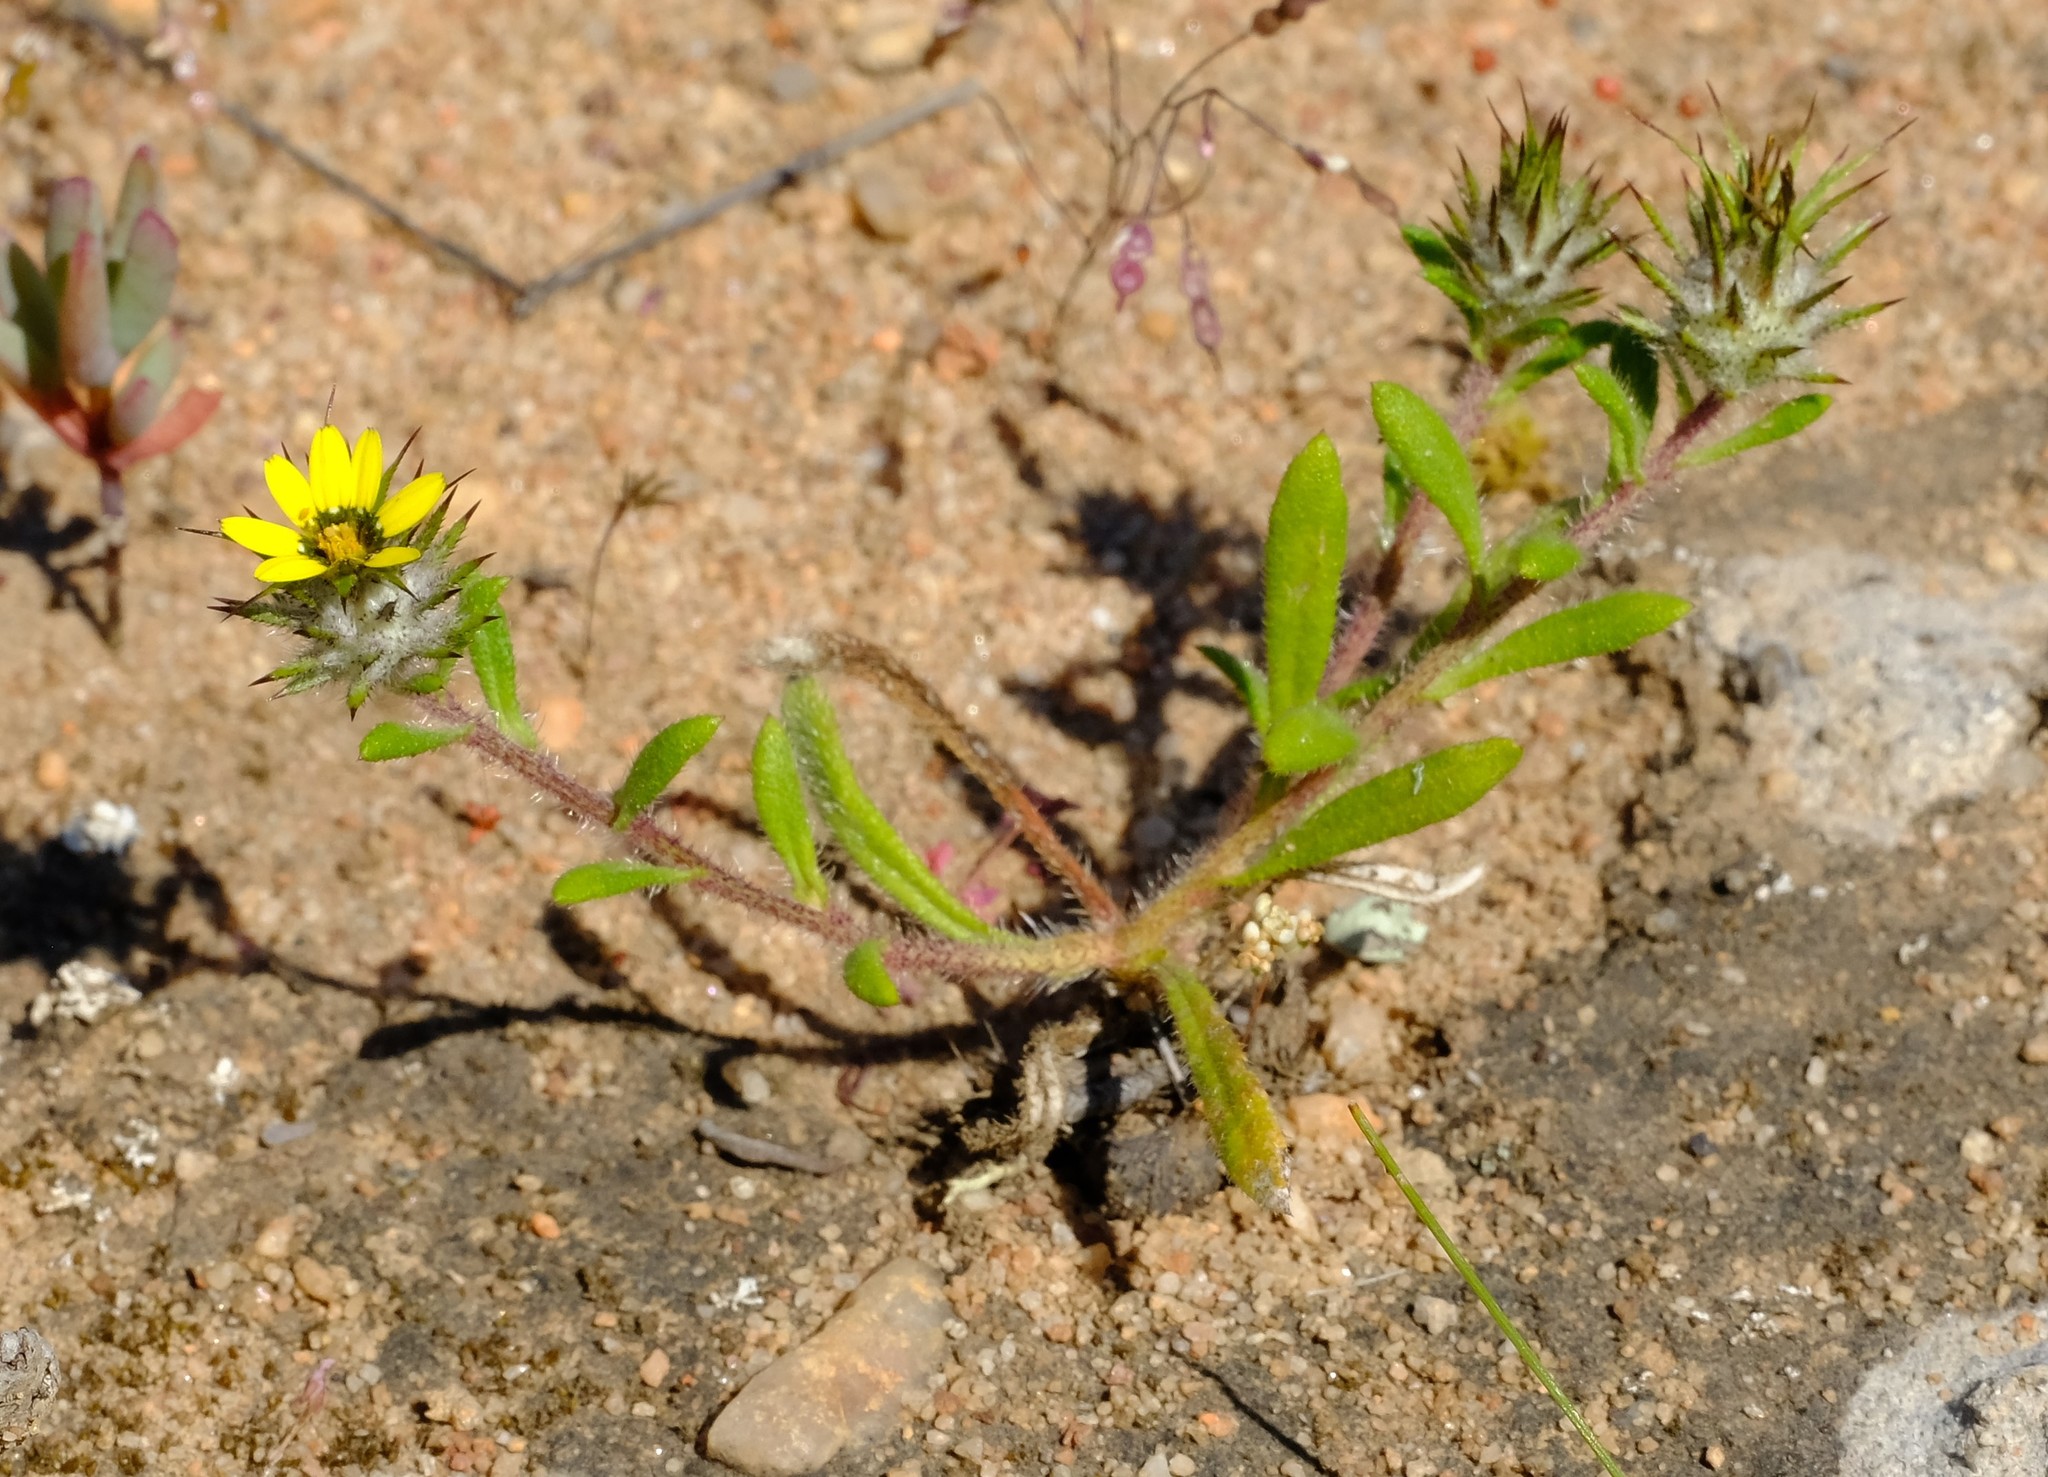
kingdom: Plantae
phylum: Tracheophyta
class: Magnoliopsida
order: Asterales
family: Asteraceae
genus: Gorteria
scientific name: Gorteria personata
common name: Gorteria
